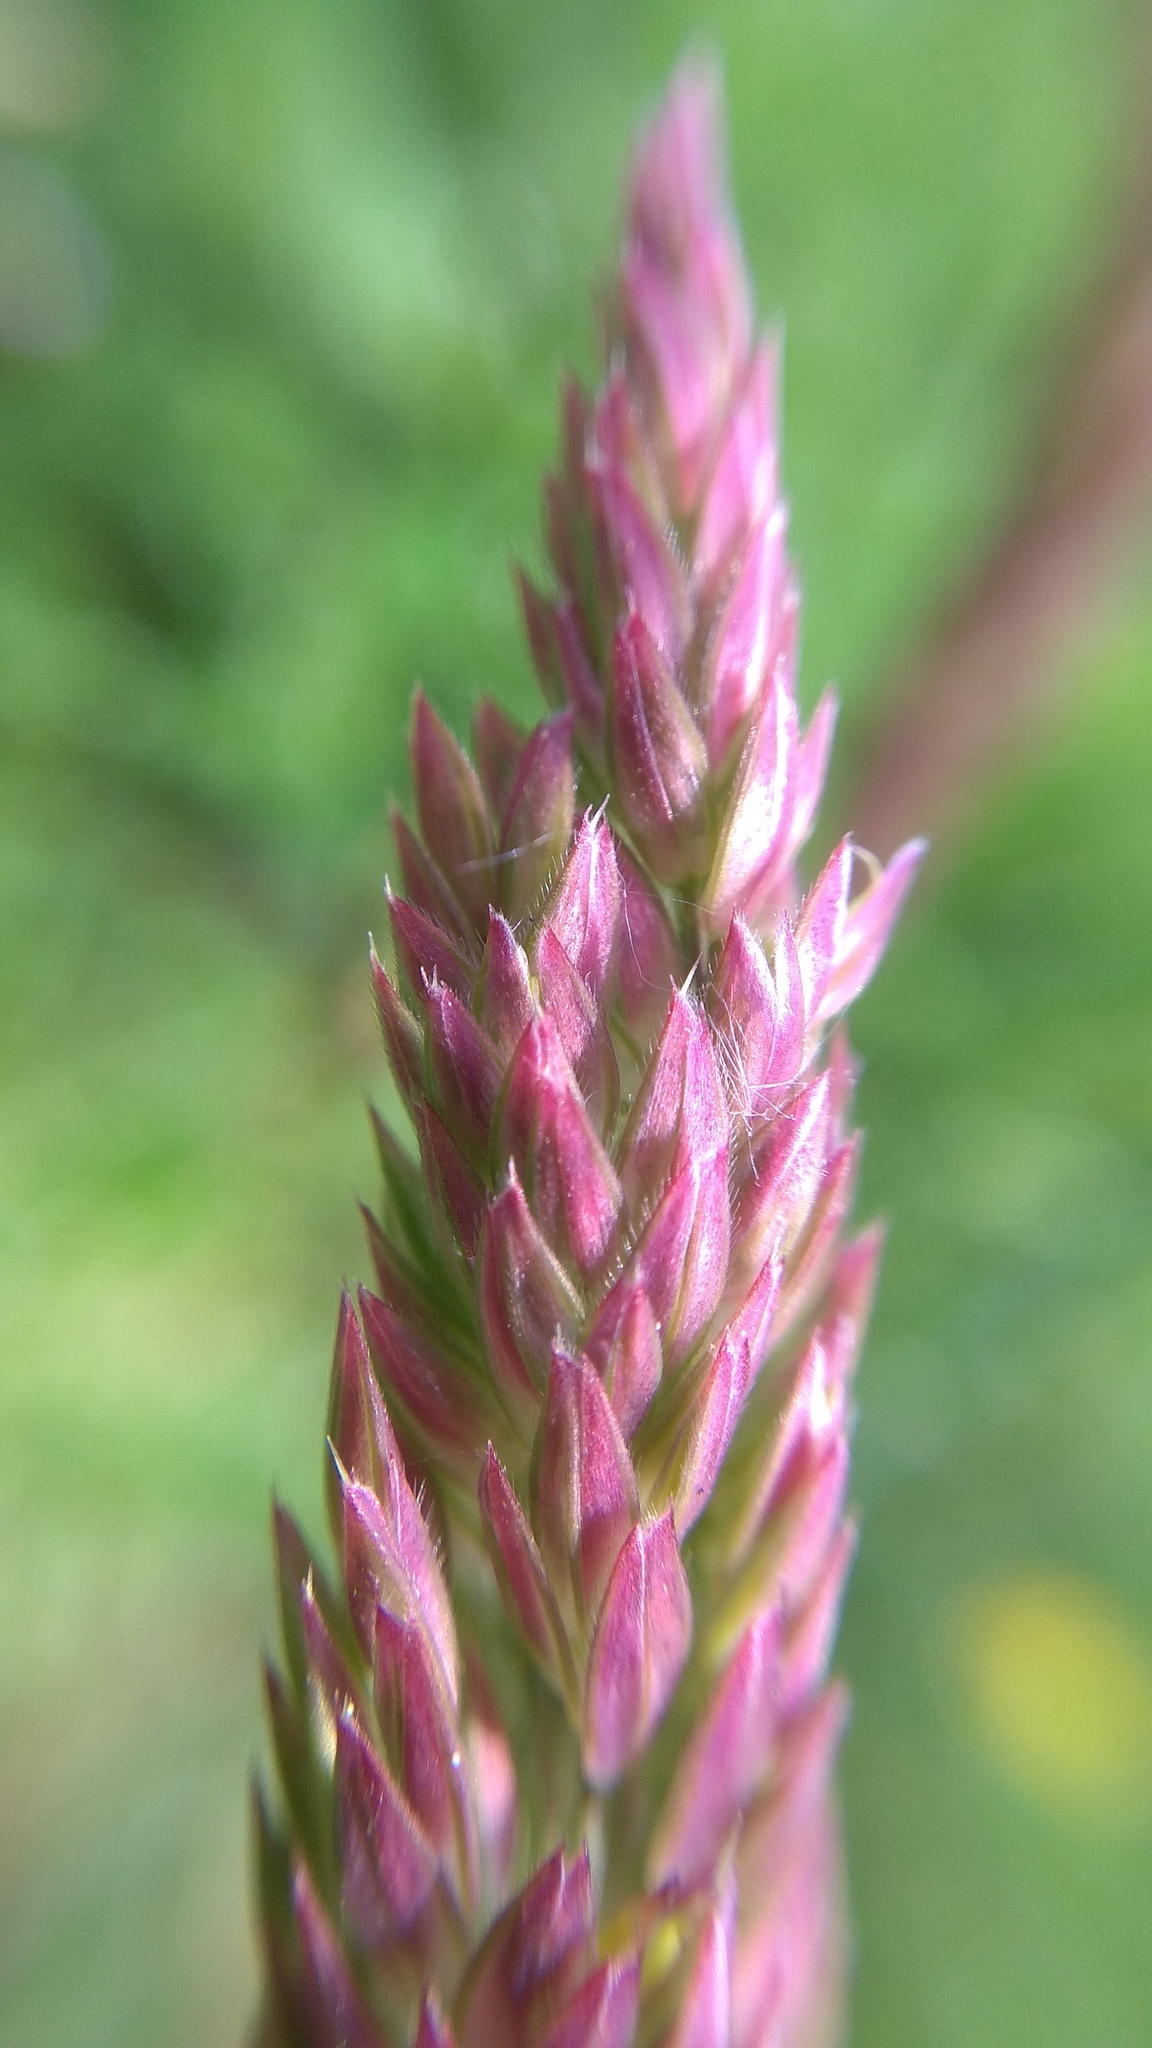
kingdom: Plantae
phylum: Tracheophyta
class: Liliopsida
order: Poales
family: Poaceae
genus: Holcus
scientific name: Holcus lanatus
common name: Yorkshire-fog
